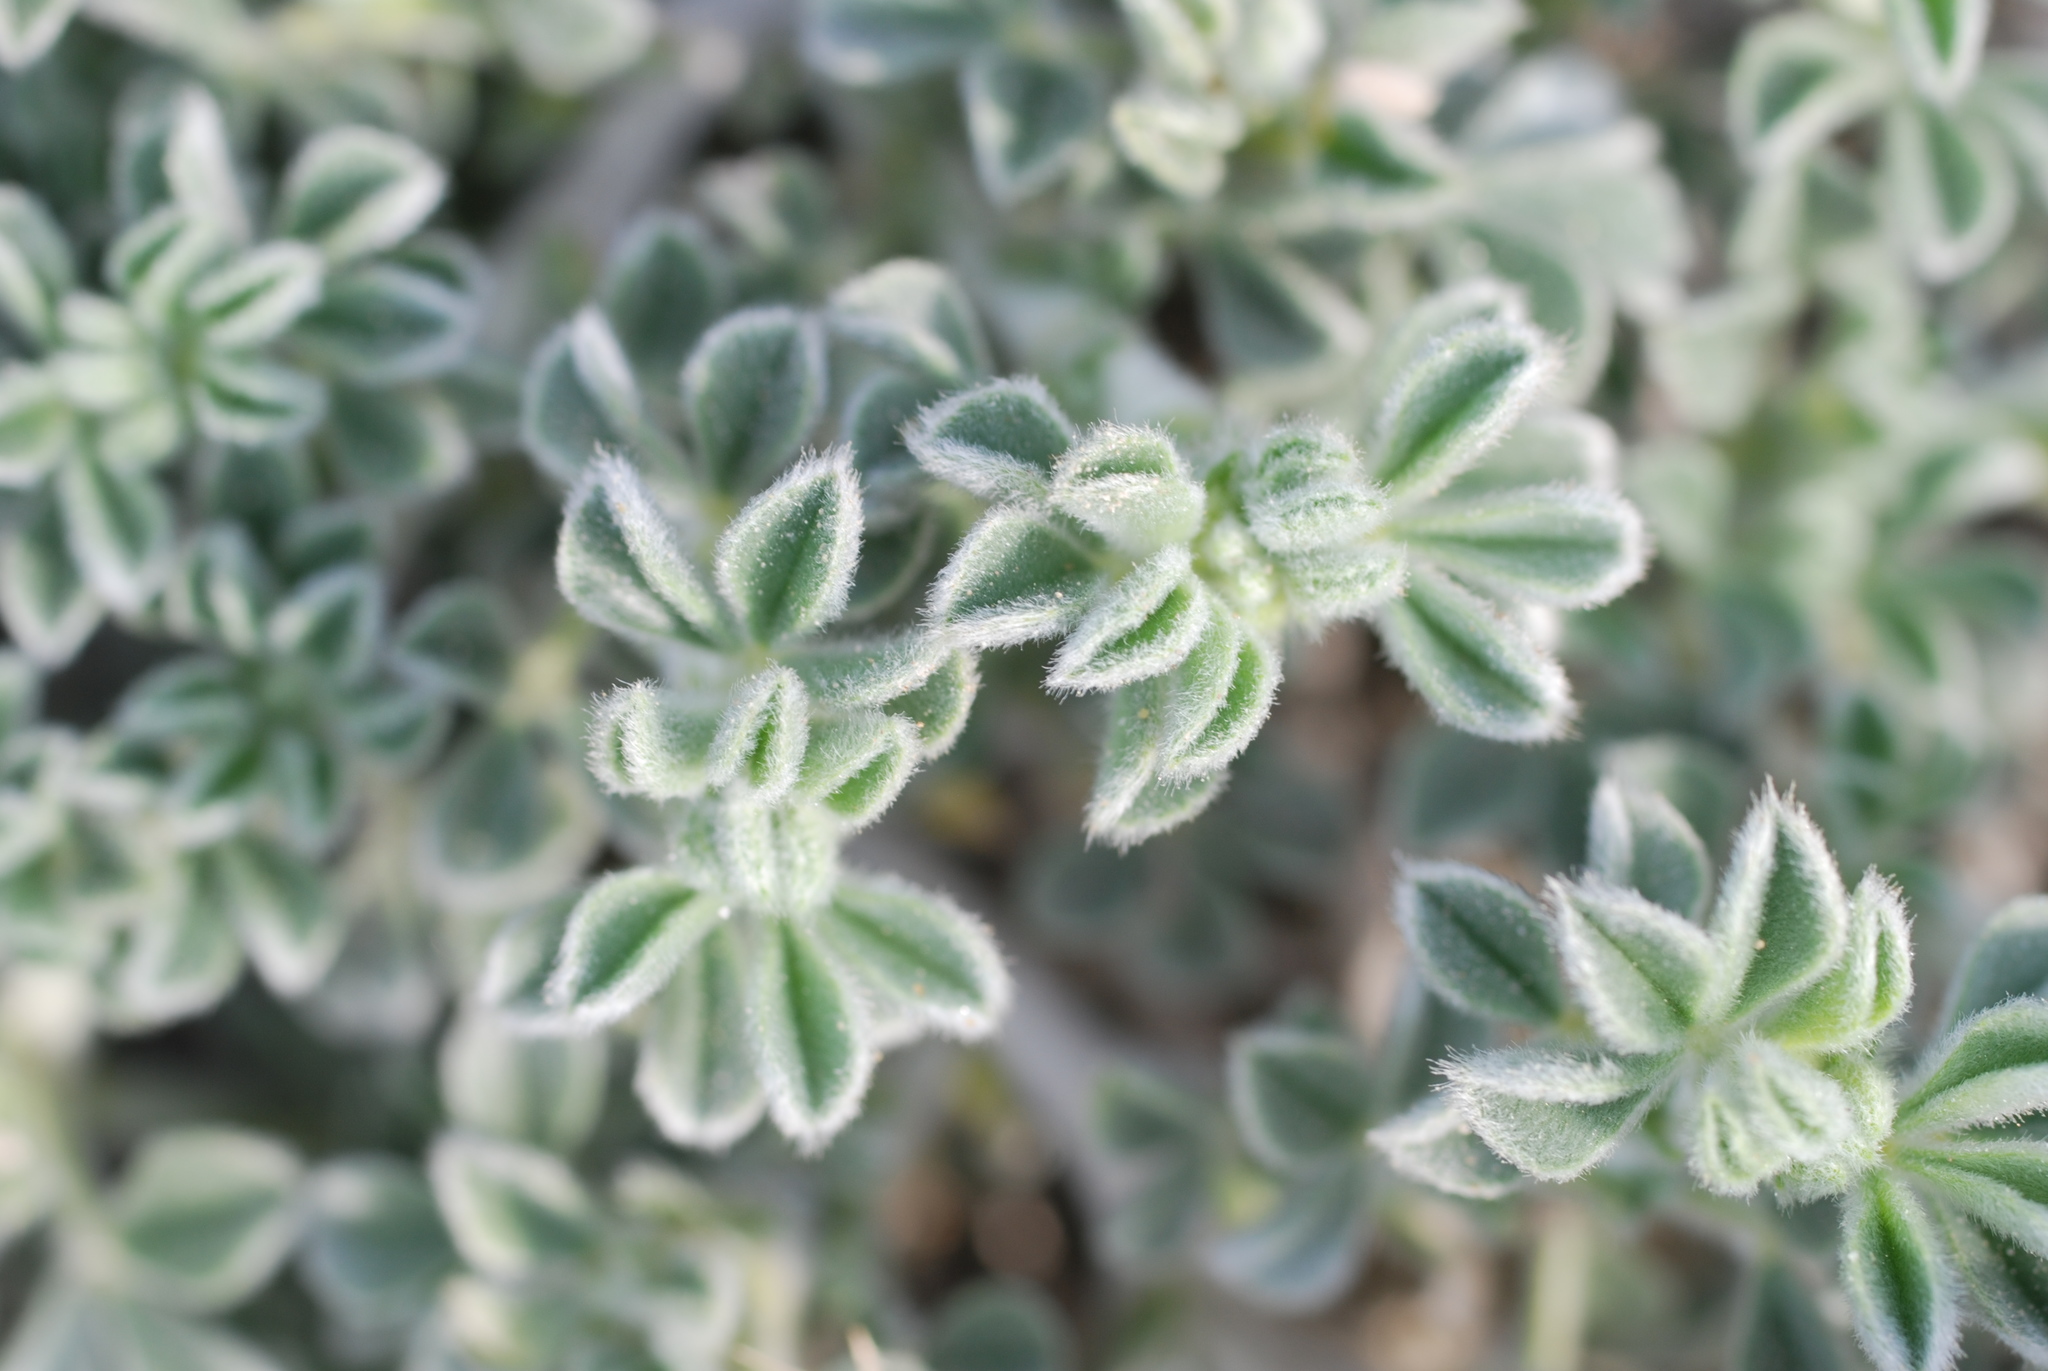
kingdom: Plantae
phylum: Tracheophyta
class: Magnoliopsida
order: Fabales
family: Fabaceae
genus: Medicago
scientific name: Medicago marina
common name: Sea medick
